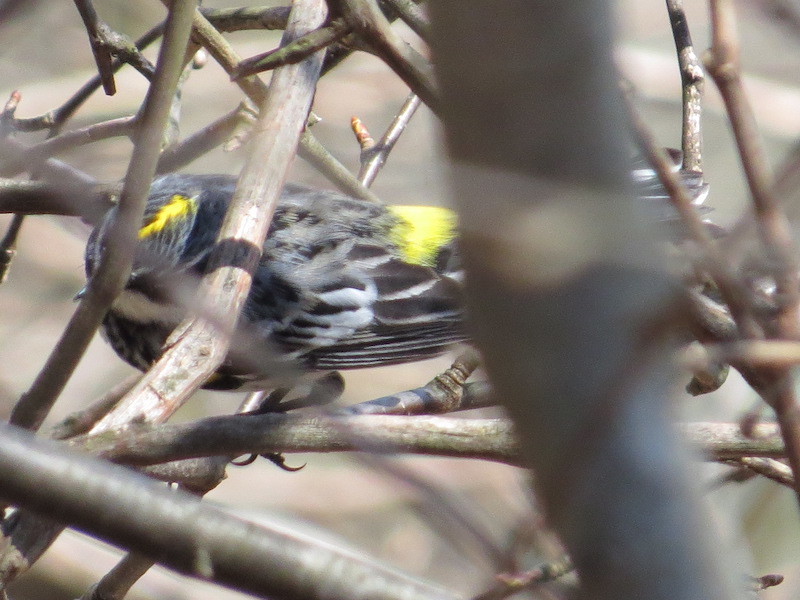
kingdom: Animalia
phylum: Chordata
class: Aves
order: Passeriformes
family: Parulidae
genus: Setophaga
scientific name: Setophaga coronata
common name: Myrtle warbler
